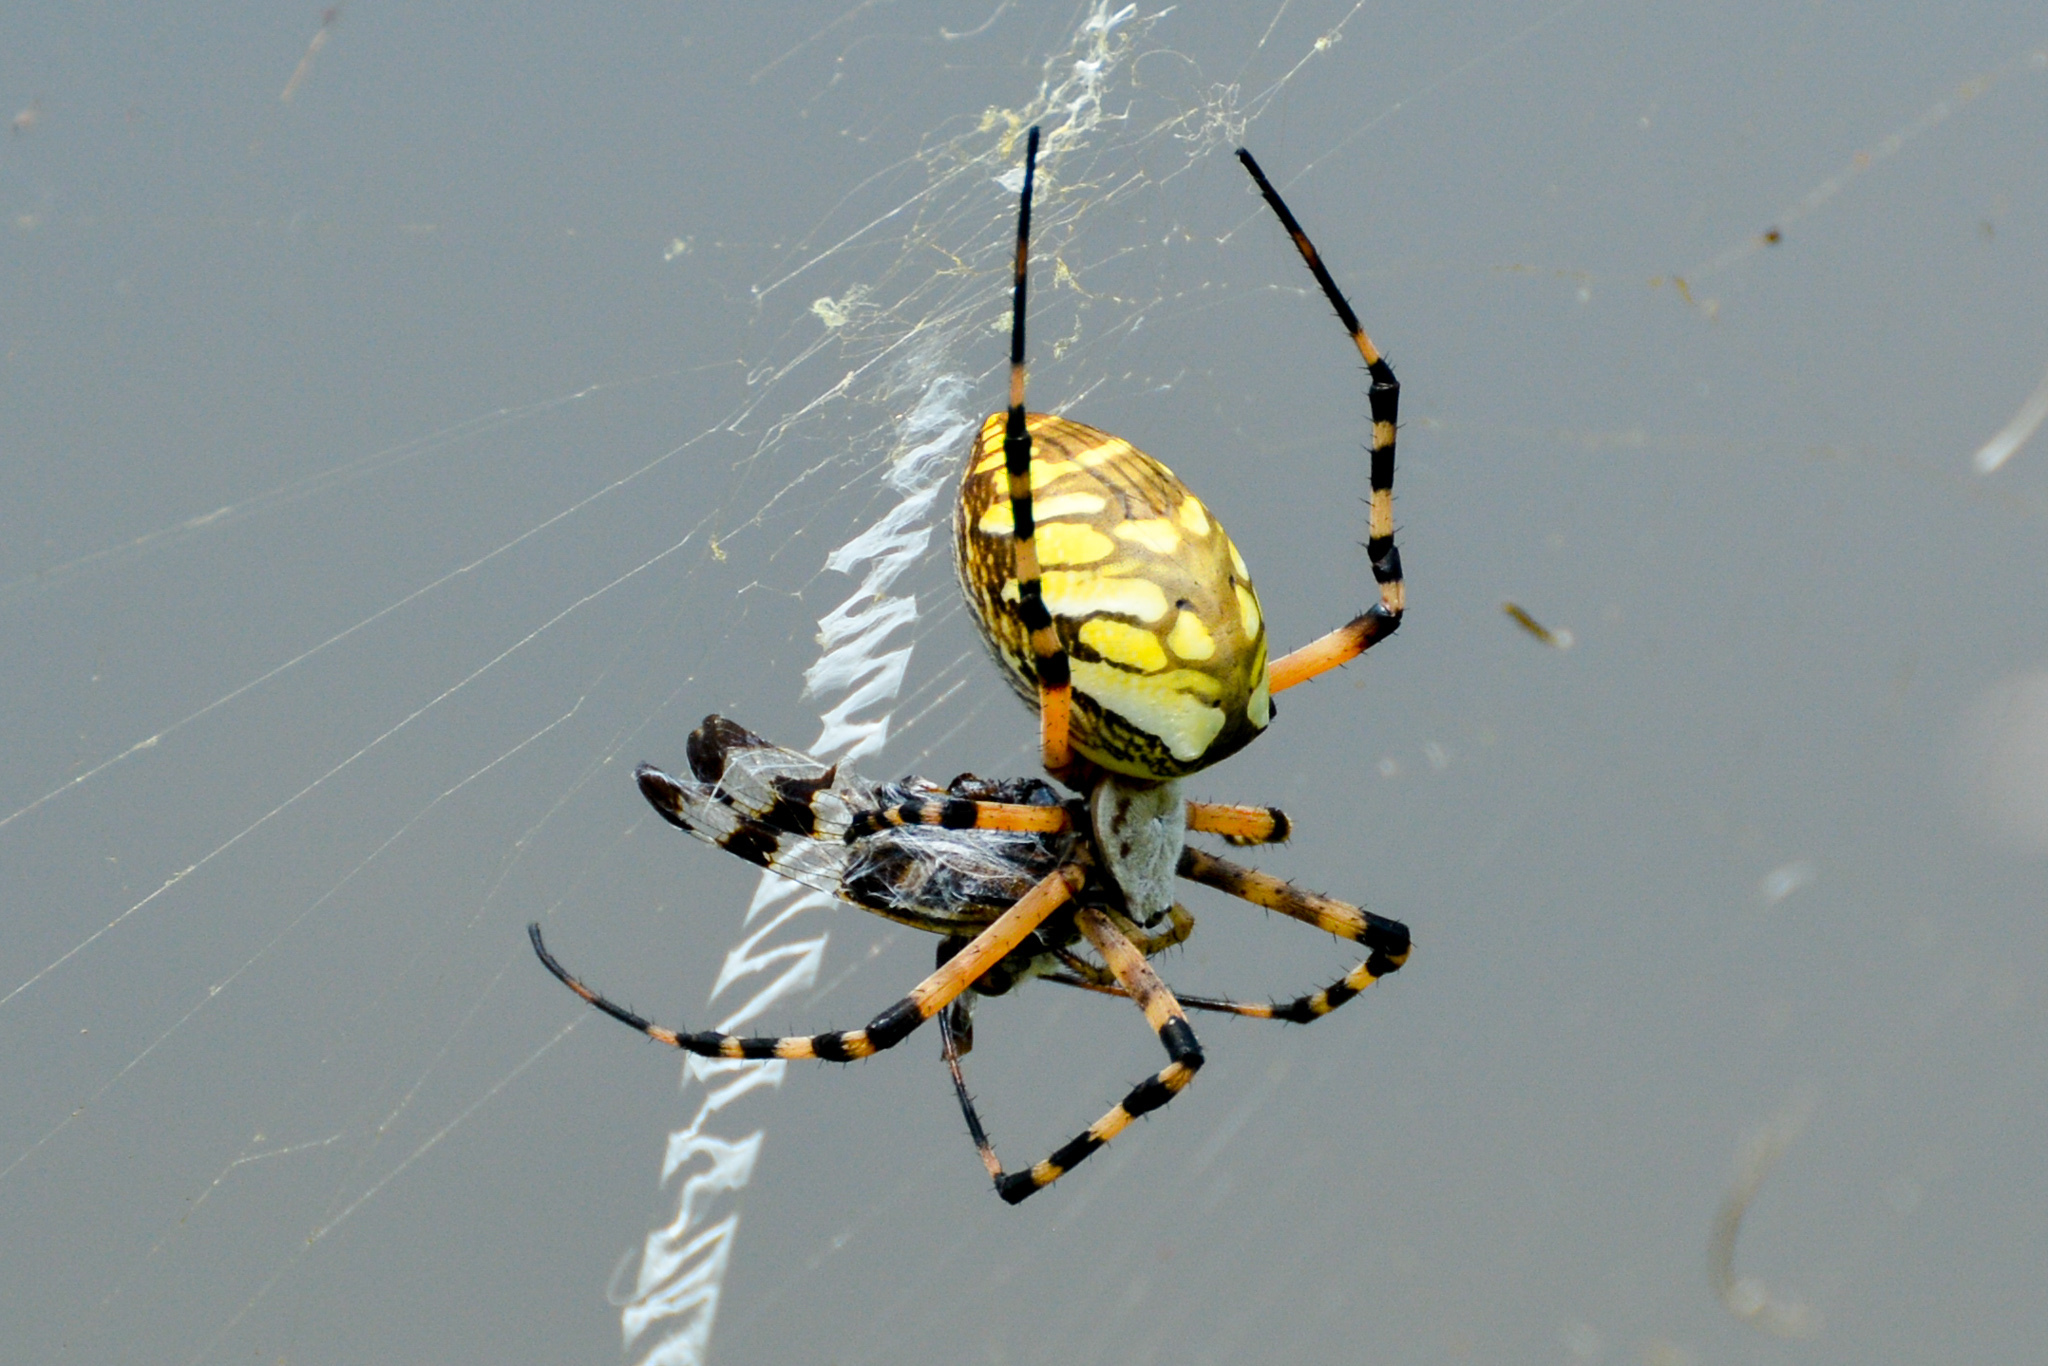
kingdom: Animalia
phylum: Arthropoda
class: Arachnida
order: Araneae
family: Araneidae
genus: Argiope
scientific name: Argiope aurantia
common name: Orb weavers
